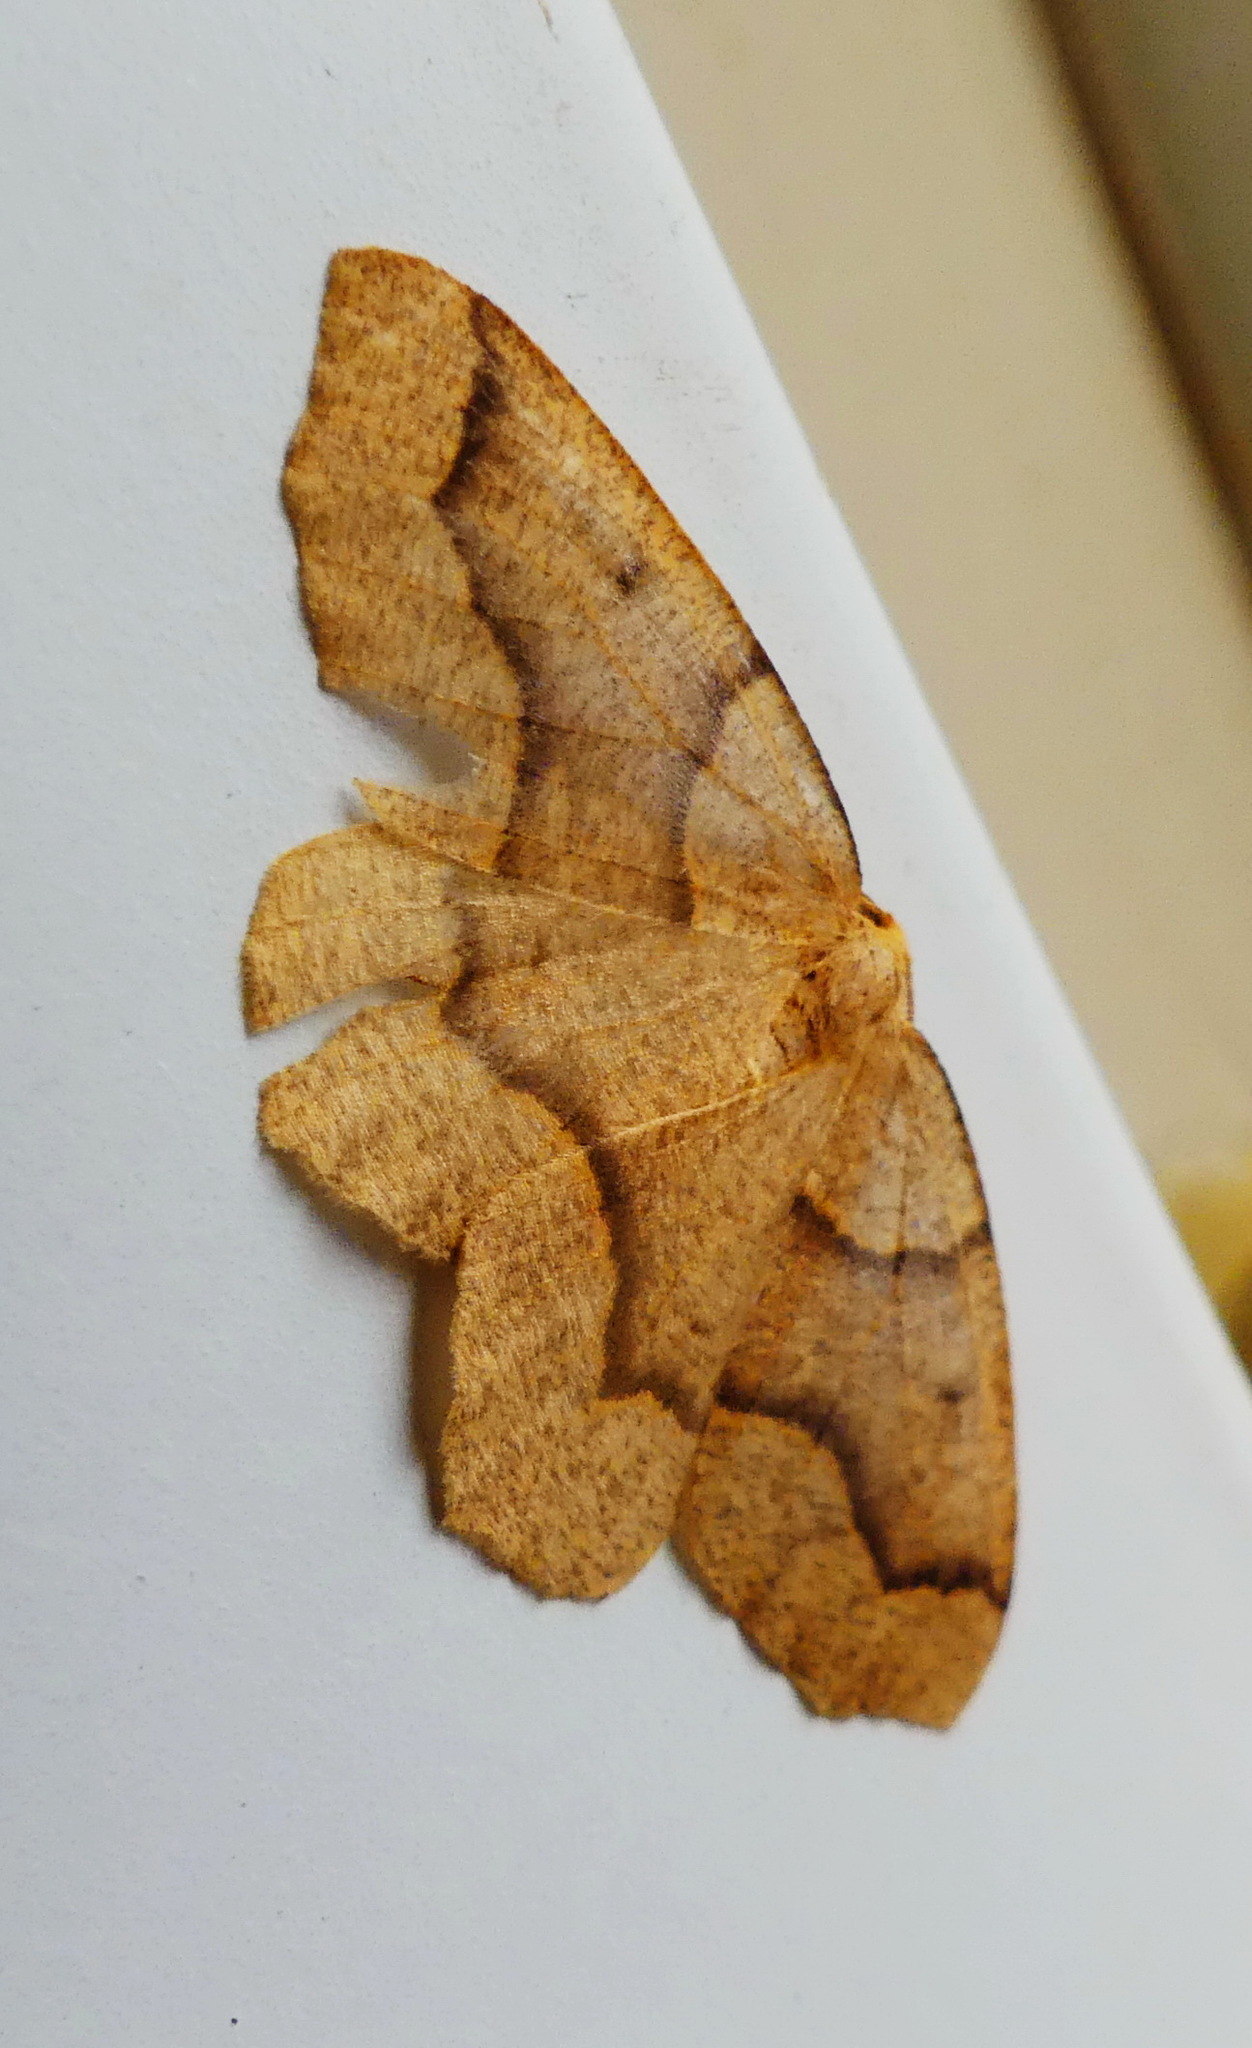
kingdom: Animalia
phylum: Arthropoda
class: Insecta
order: Lepidoptera
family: Geometridae
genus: Lambdina
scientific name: Lambdina fiscellaria
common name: Hemlock looper
